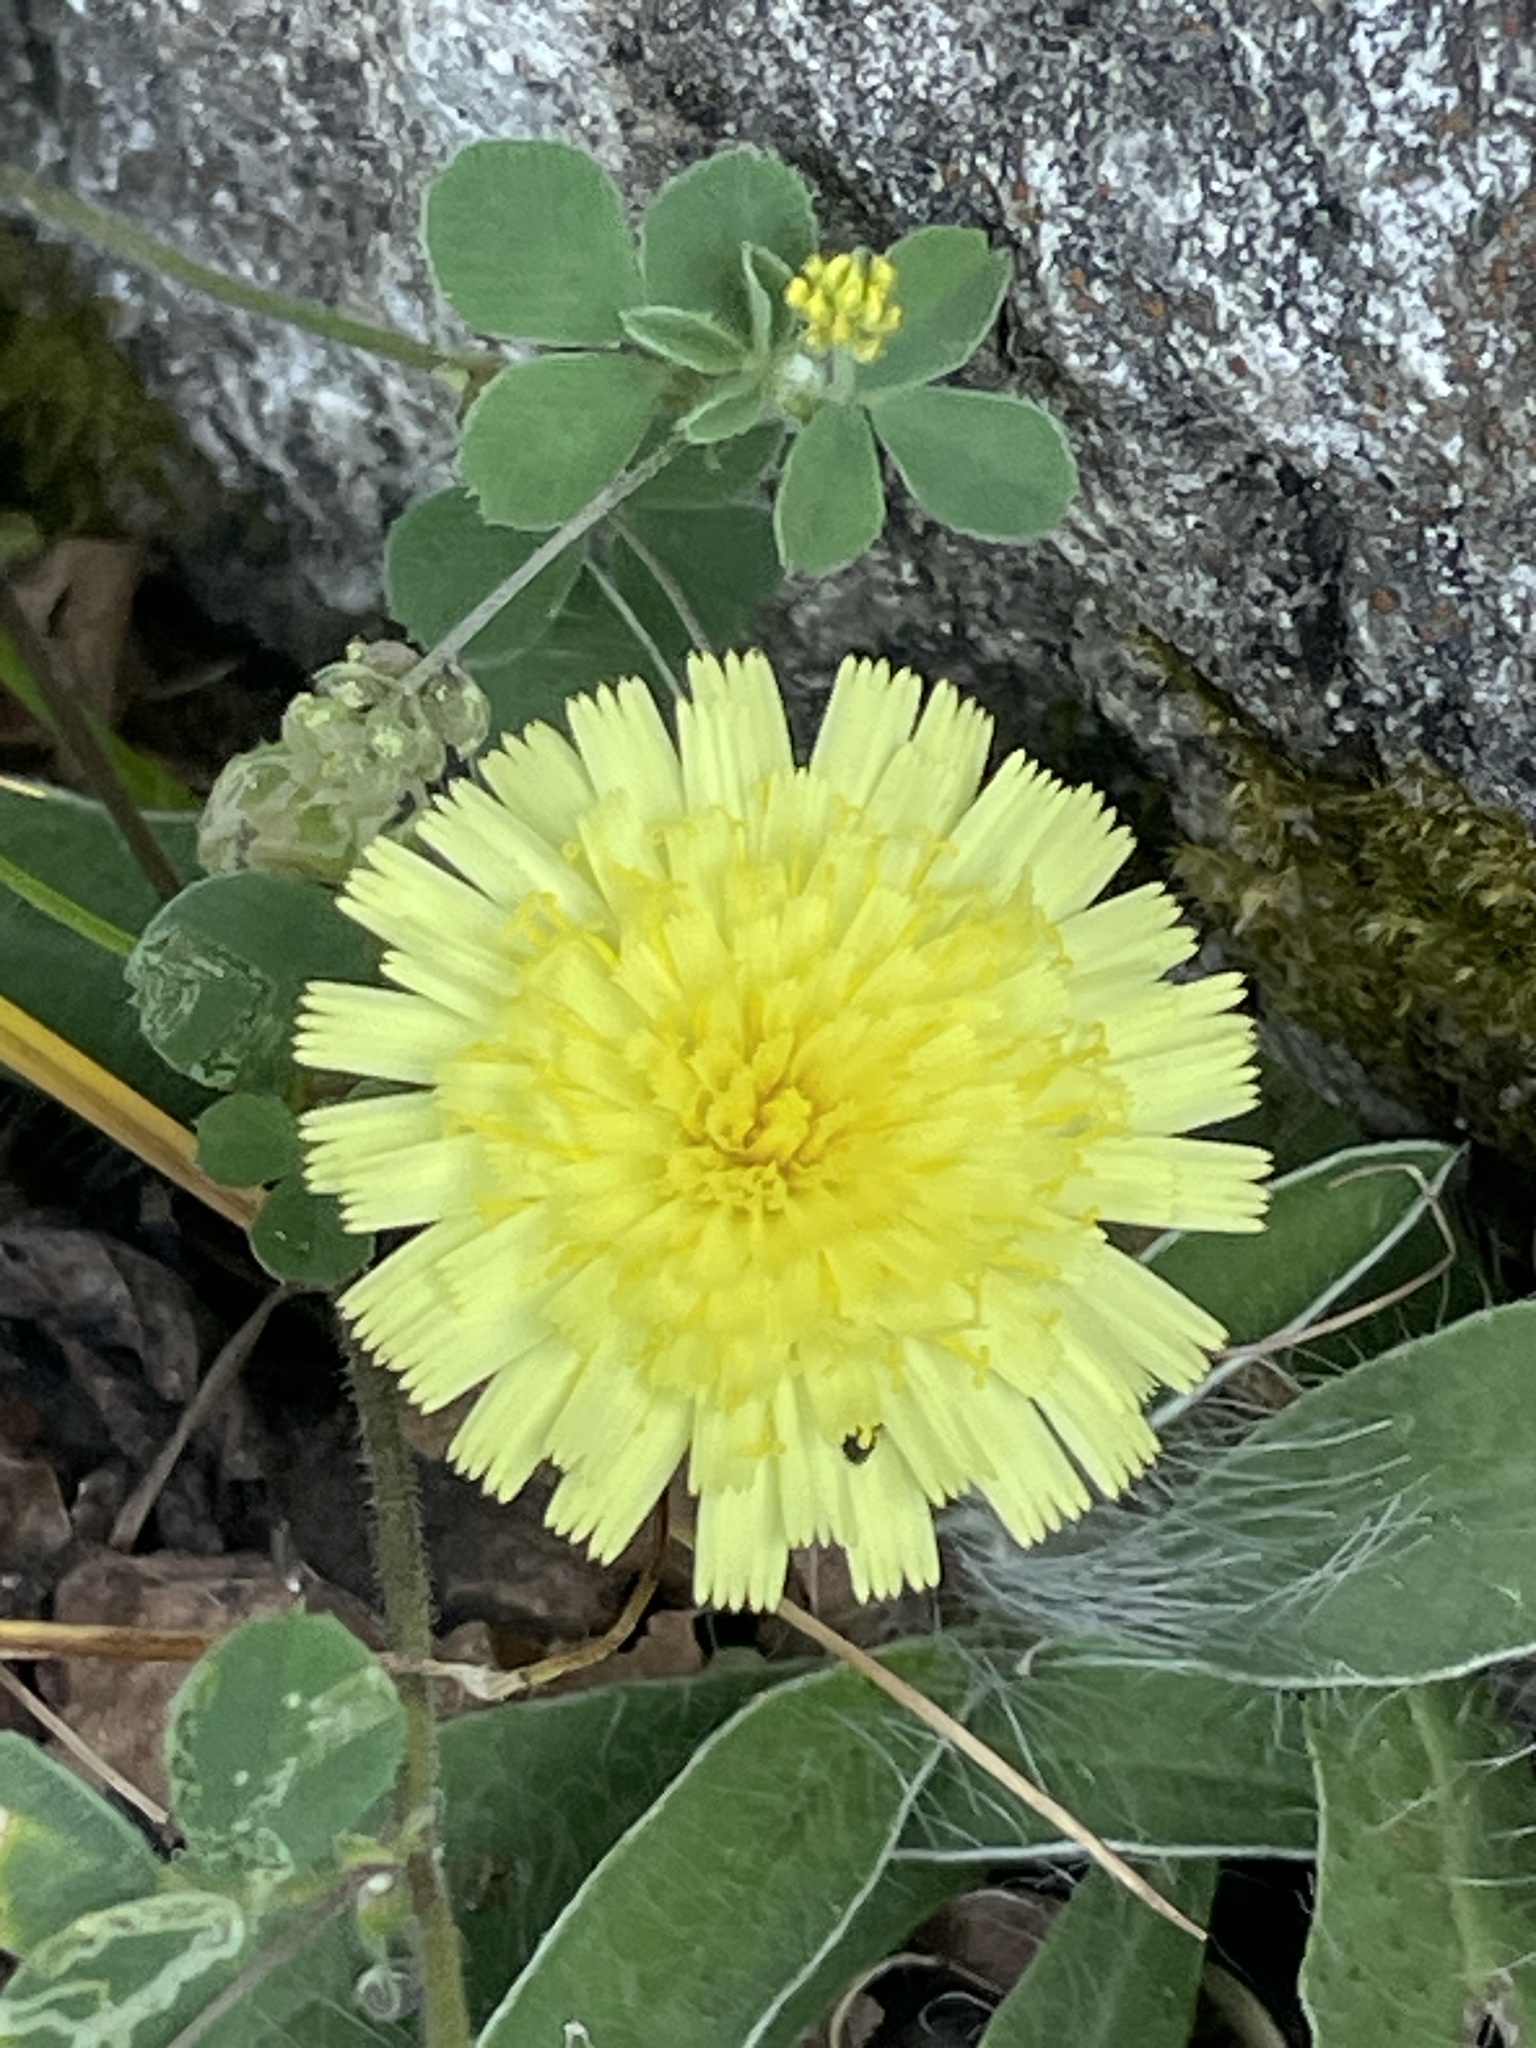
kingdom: Plantae
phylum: Tracheophyta
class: Magnoliopsida
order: Asterales
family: Asteraceae
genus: Pilosella
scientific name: Pilosella officinarum
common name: Mouse-ear hawkweed
